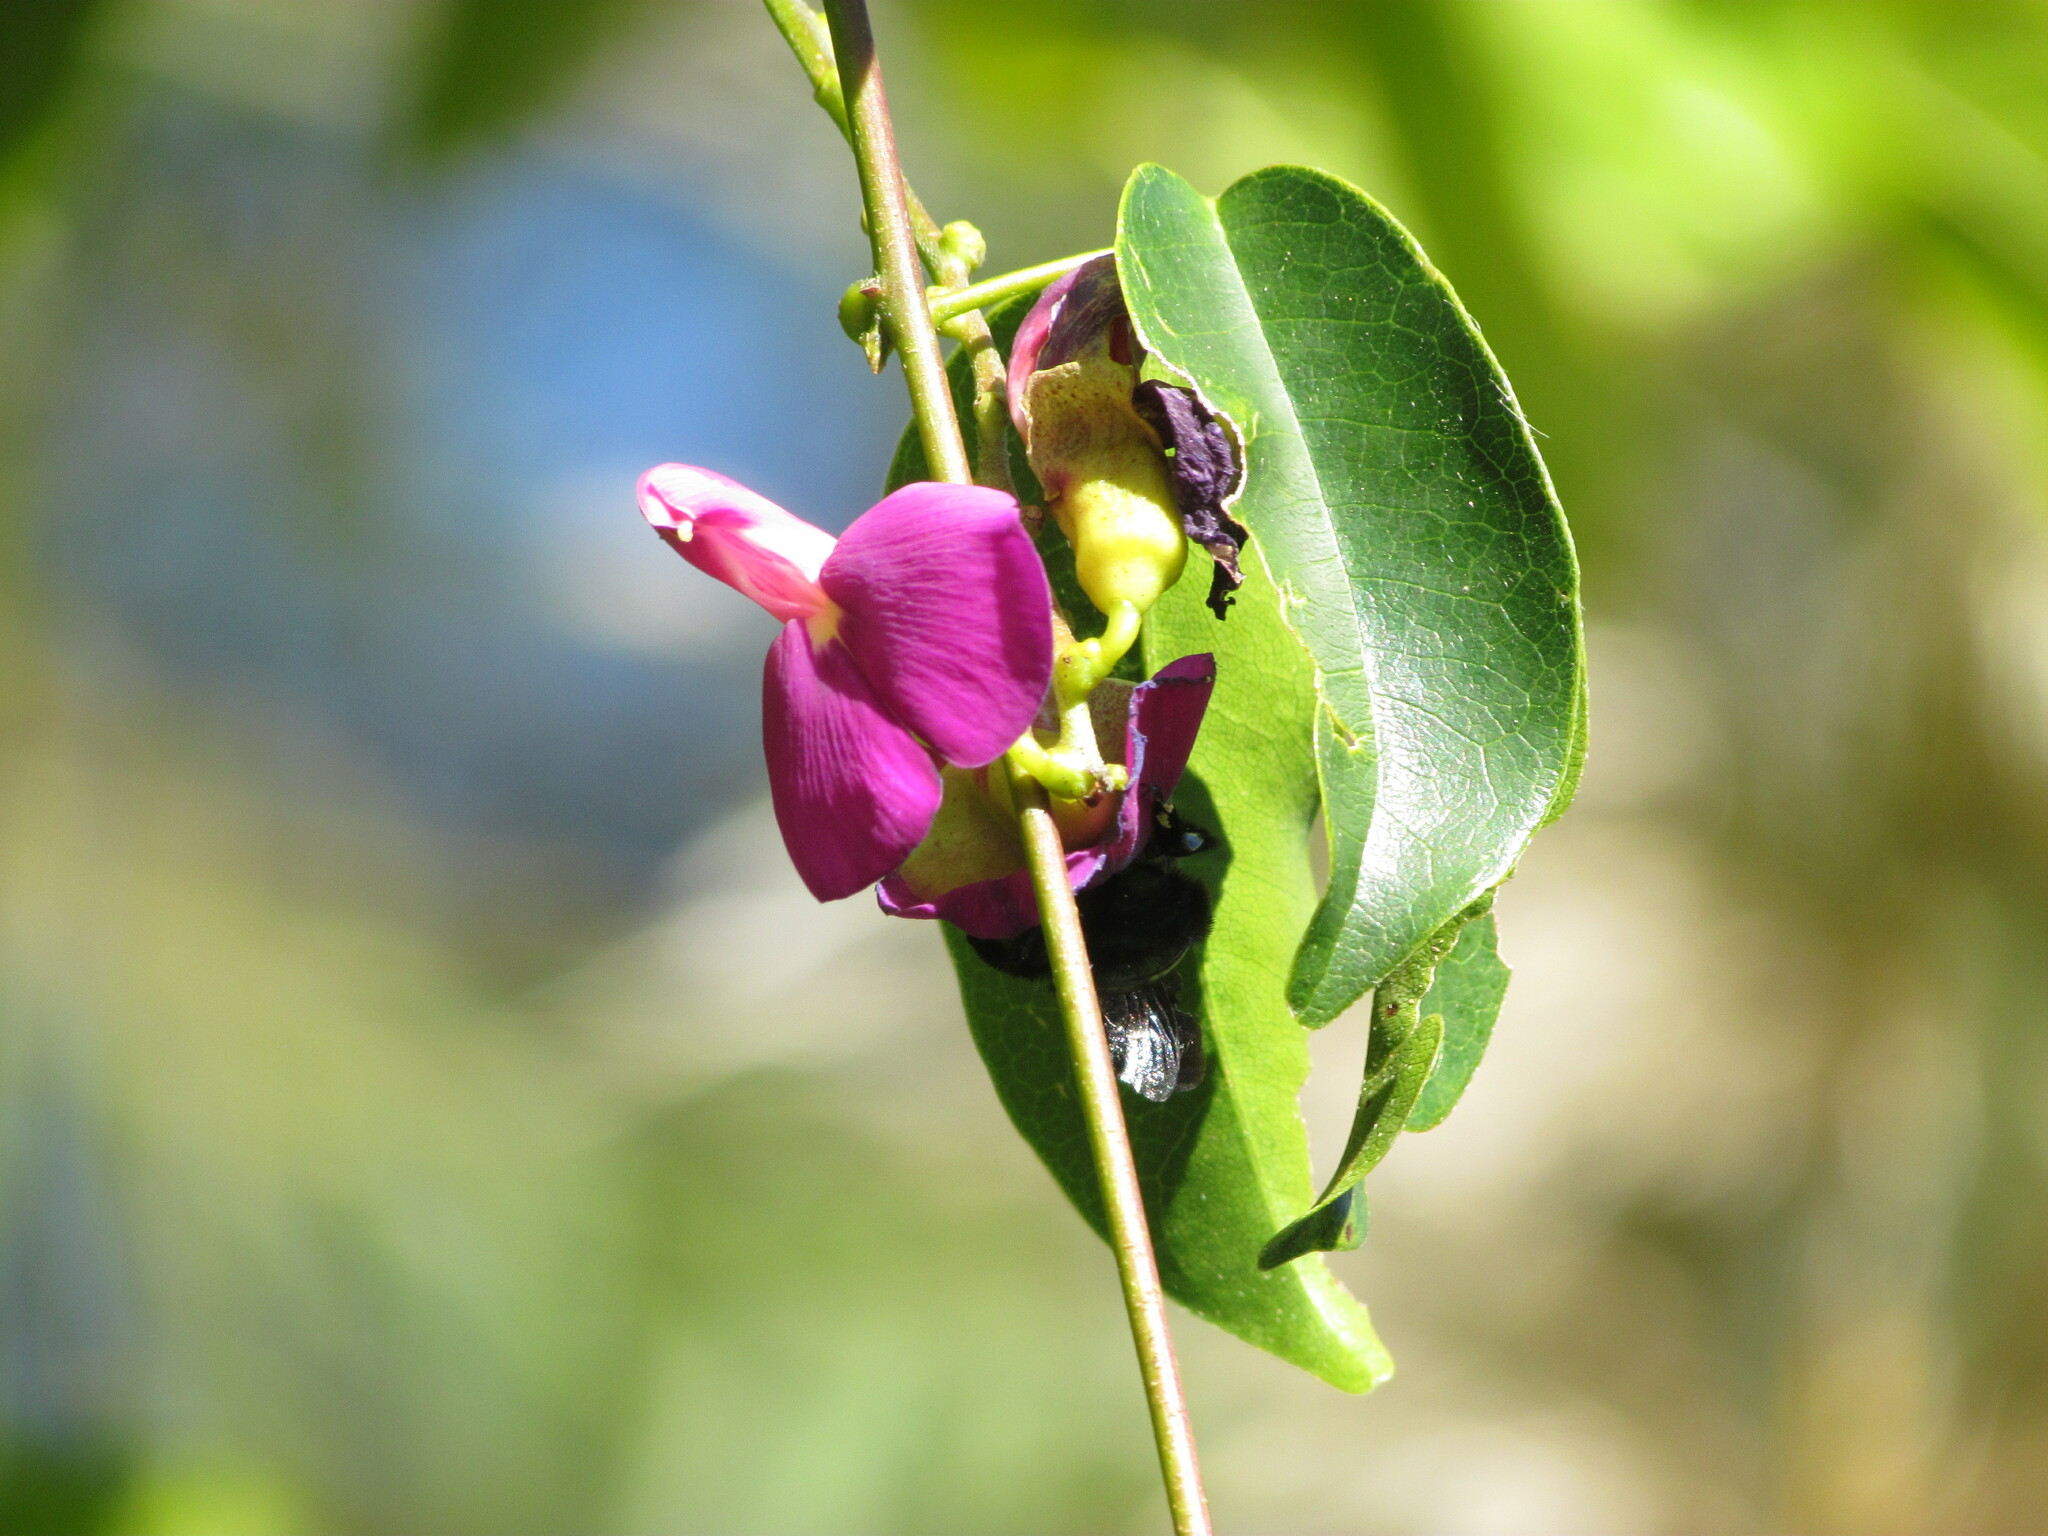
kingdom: Plantae
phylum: Tracheophyta
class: Magnoliopsida
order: Fabales
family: Fabaceae
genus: Canavalia
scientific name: Canavalia bonariensis
